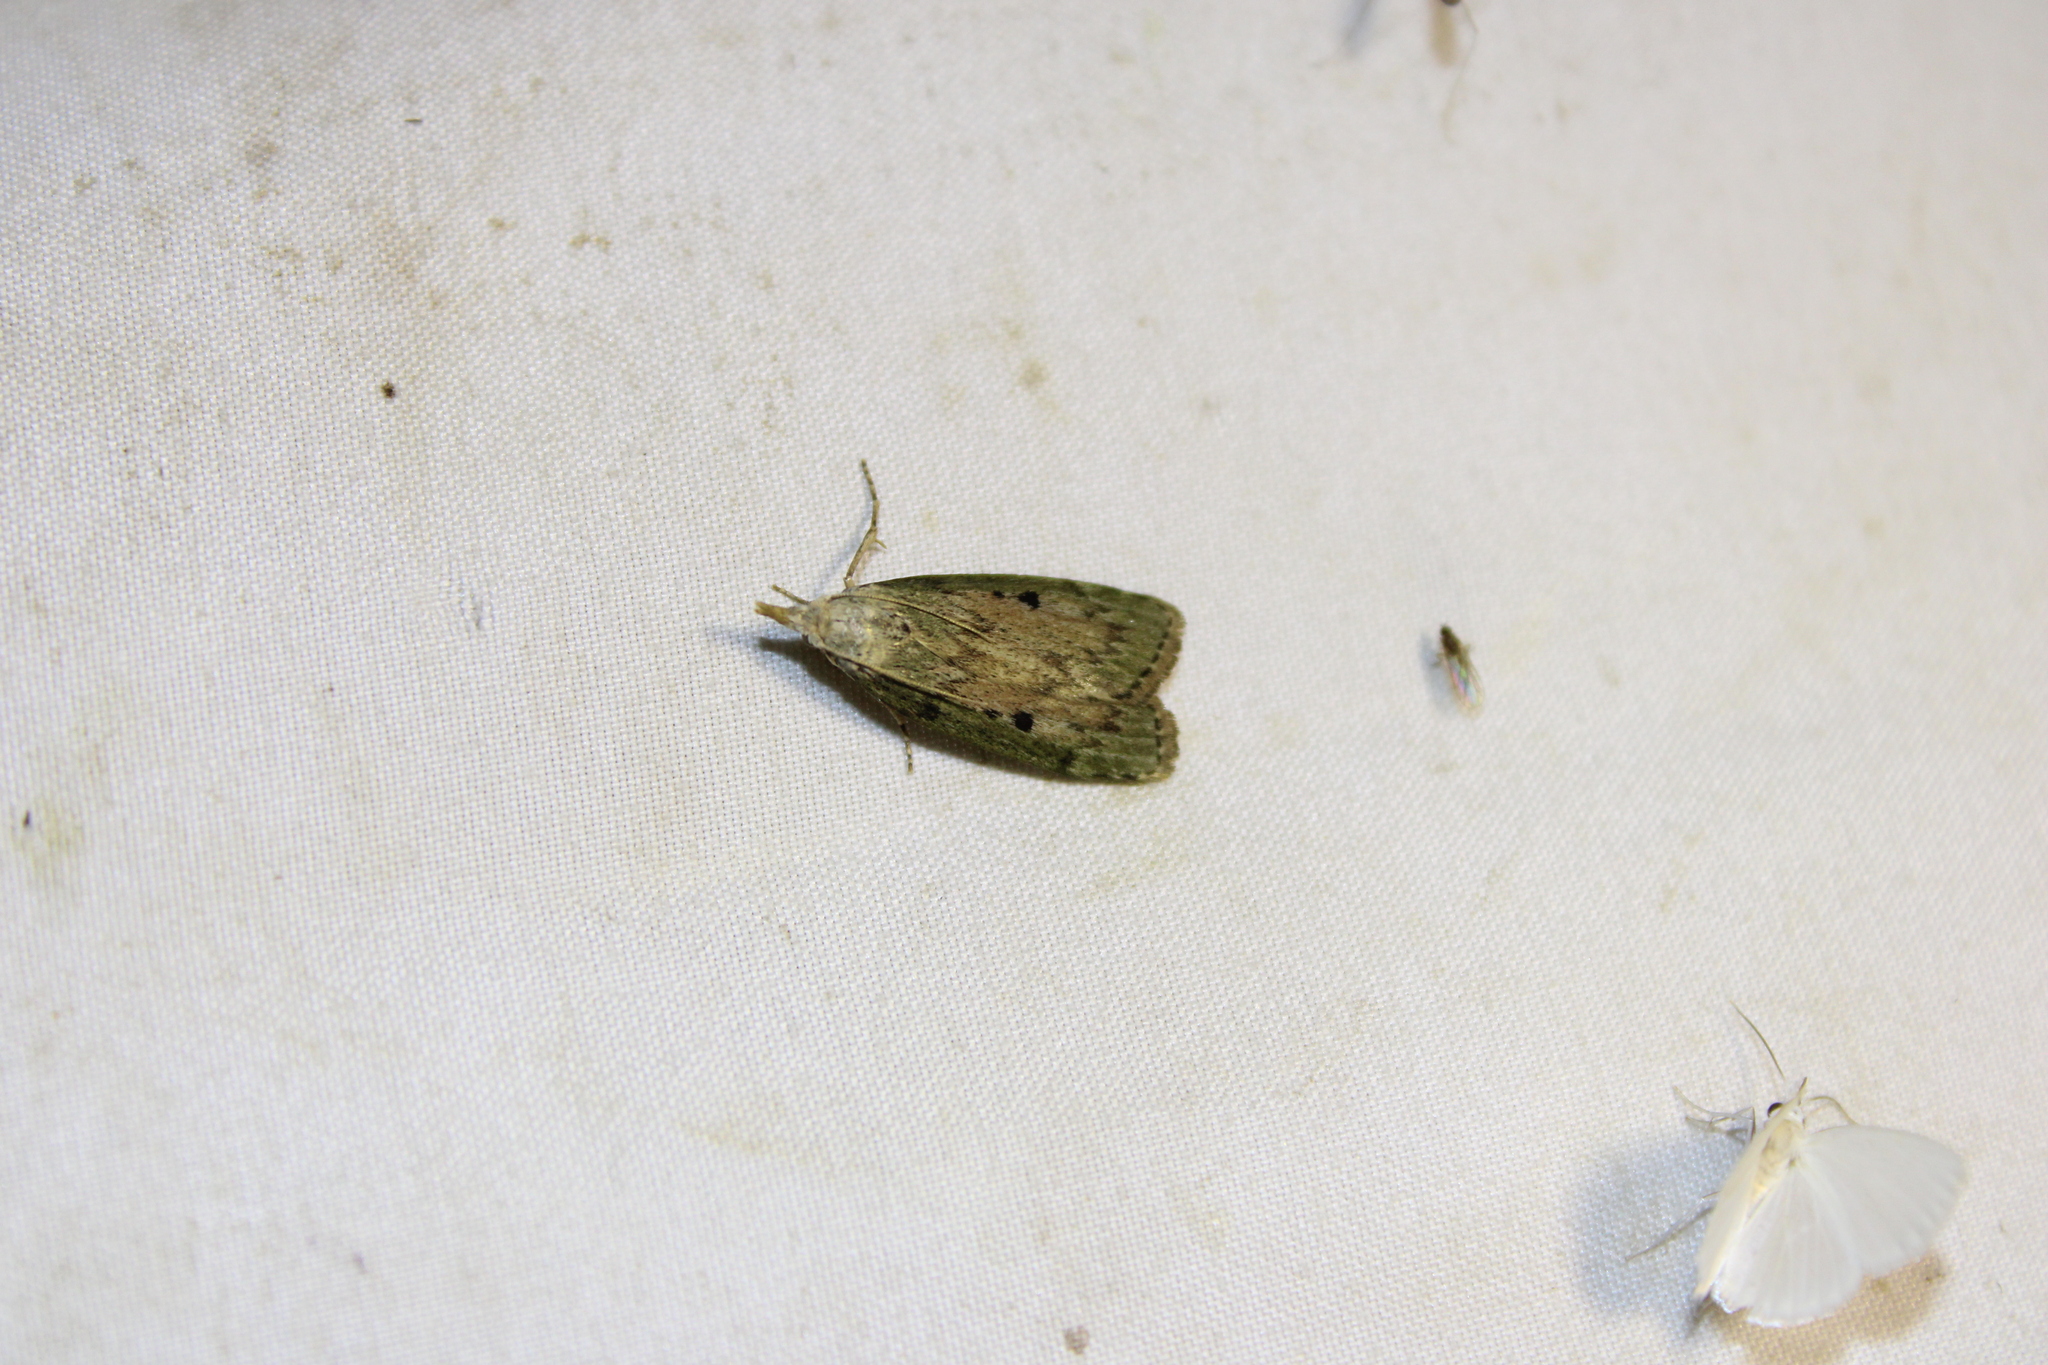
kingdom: Animalia
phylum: Arthropoda
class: Insecta
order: Lepidoptera
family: Pyralidae
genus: Aphomia
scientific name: Aphomia sociella
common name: Bee moth
